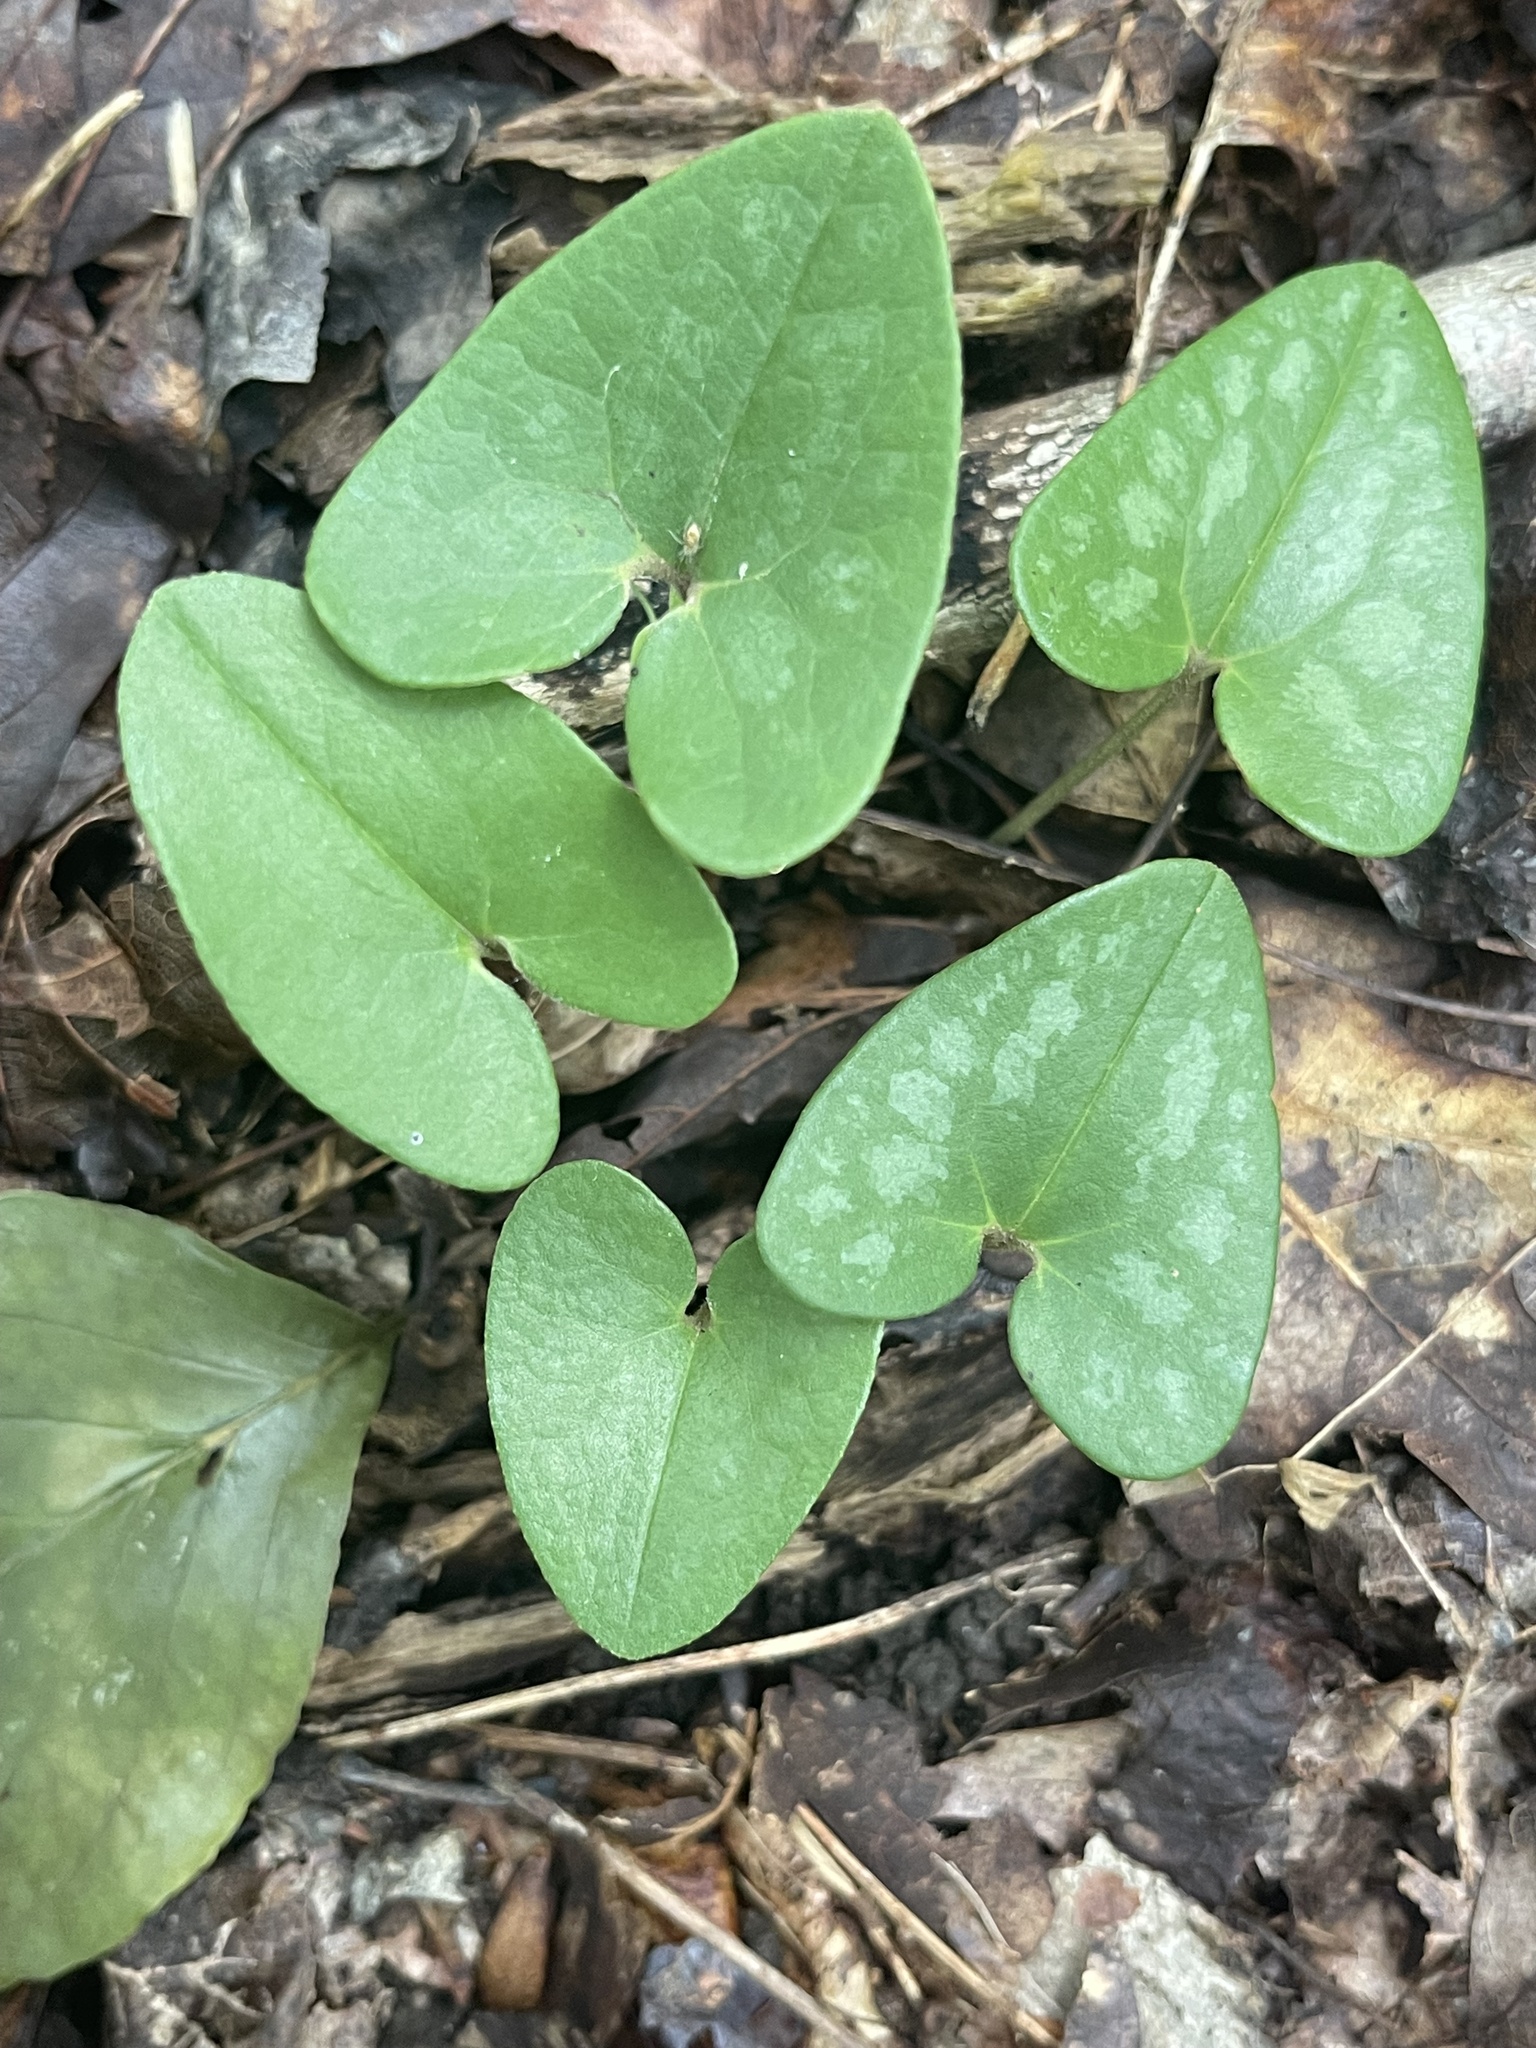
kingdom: Plantae
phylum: Tracheophyta
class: Magnoliopsida
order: Piperales
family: Aristolochiaceae
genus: Hexastylis
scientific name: Hexastylis arifolia
